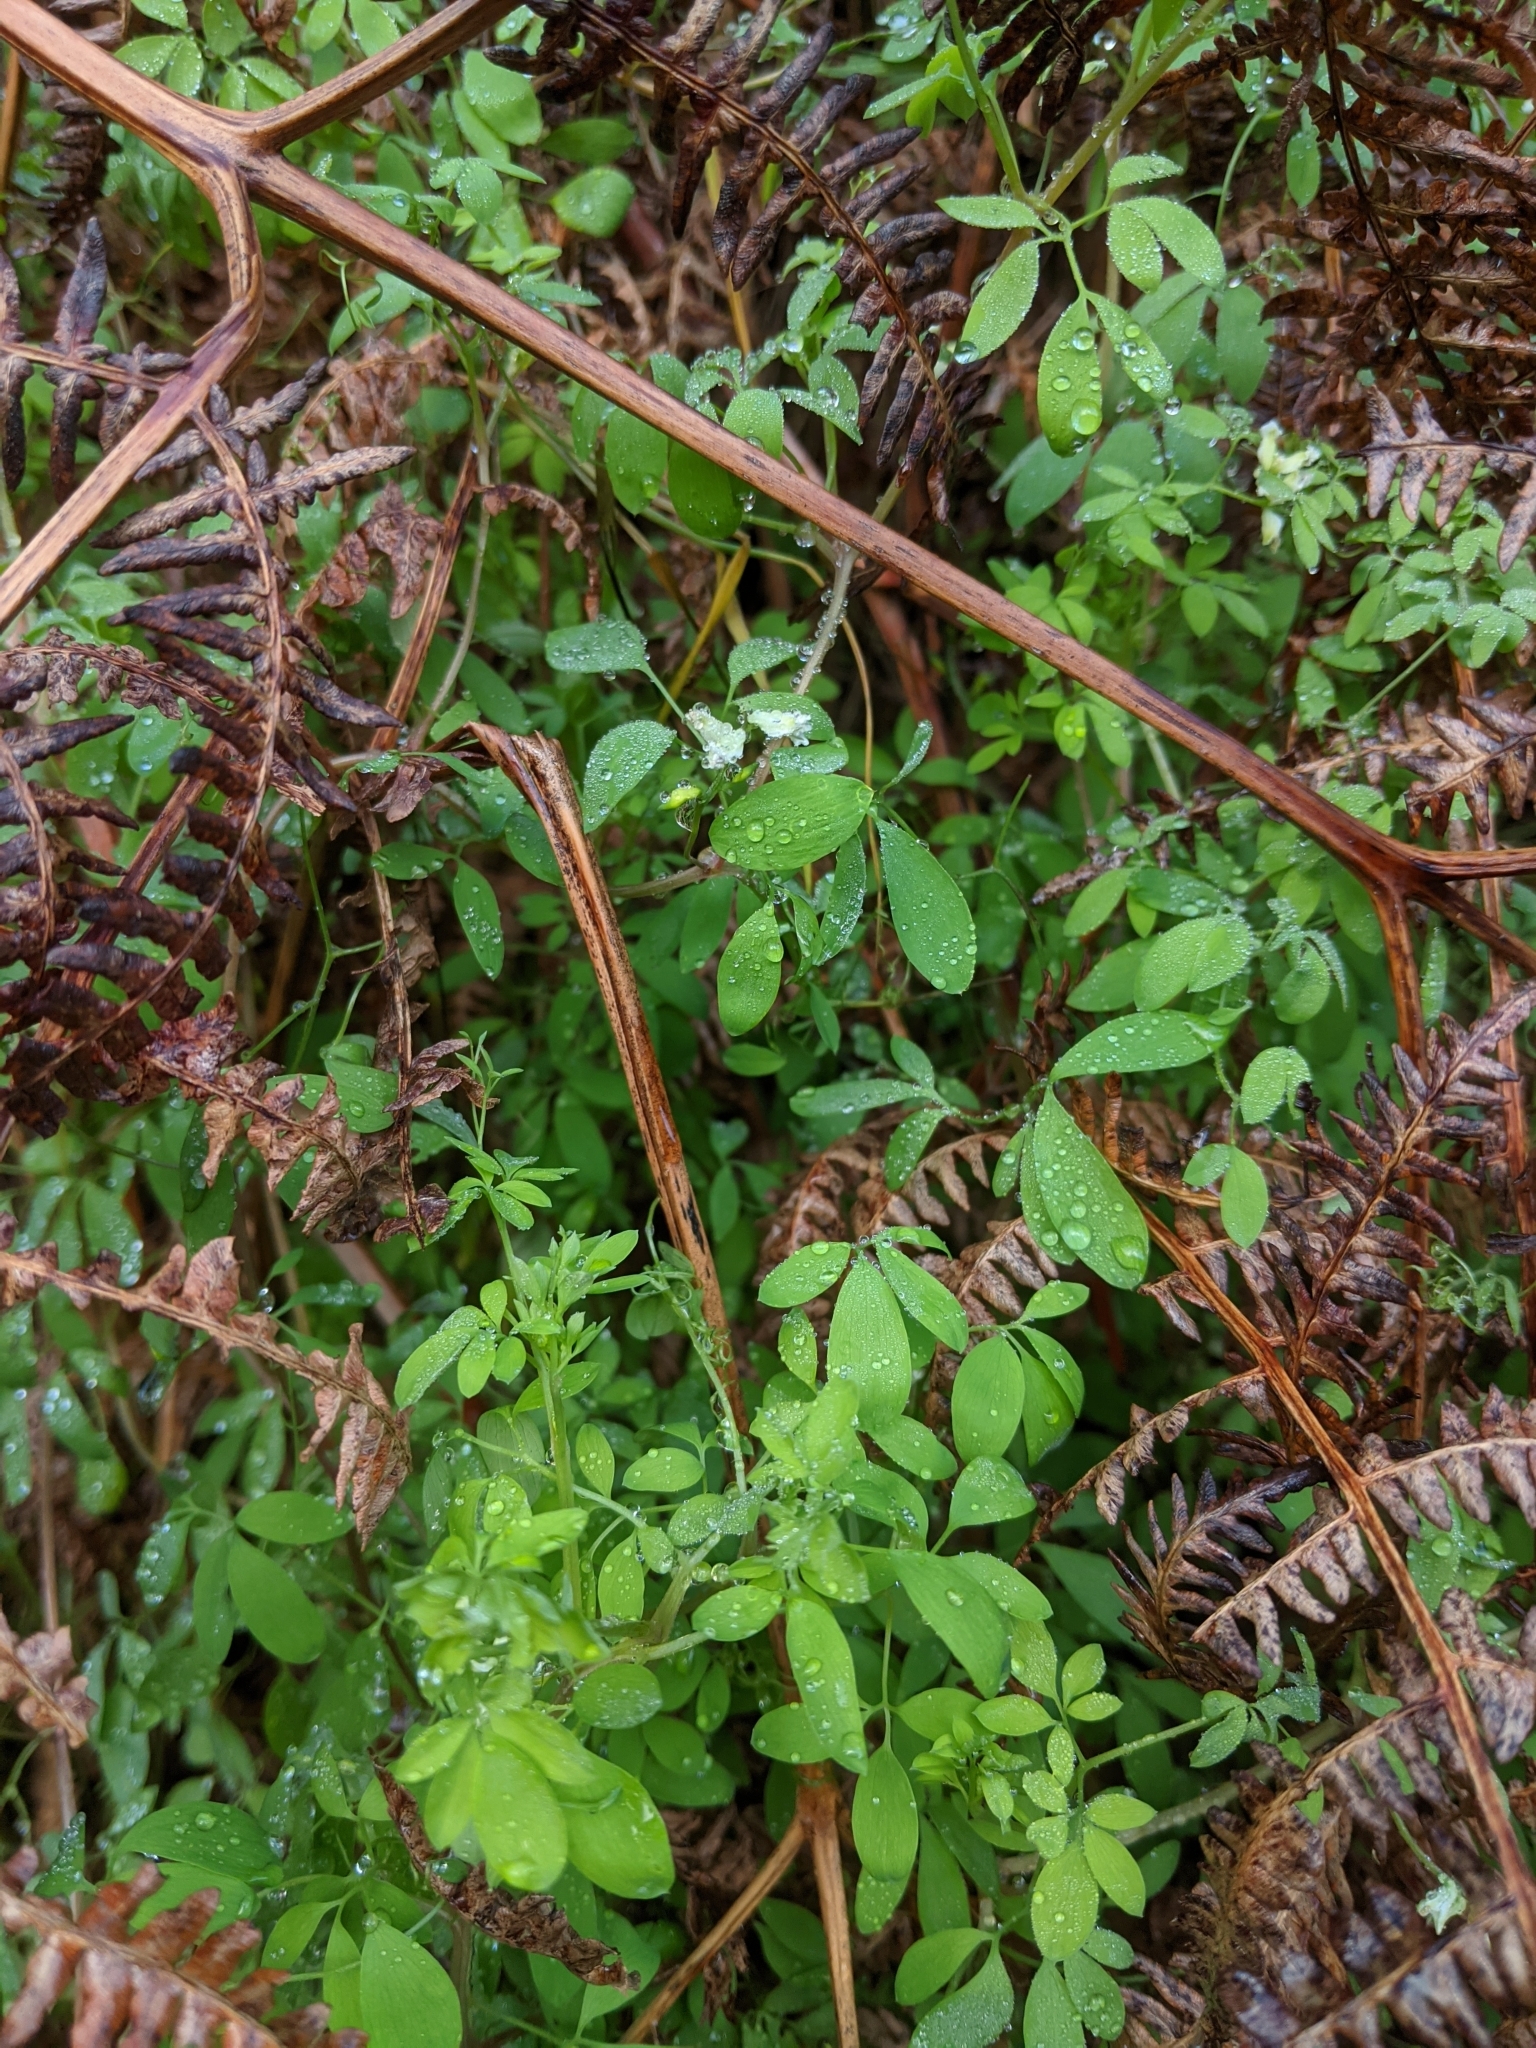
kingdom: Plantae
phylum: Tracheophyta
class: Magnoliopsida
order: Ranunculales
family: Papaveraceae
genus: Ceratocapnos
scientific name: Ceratocapnos claviculata
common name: Climbing corydalis
